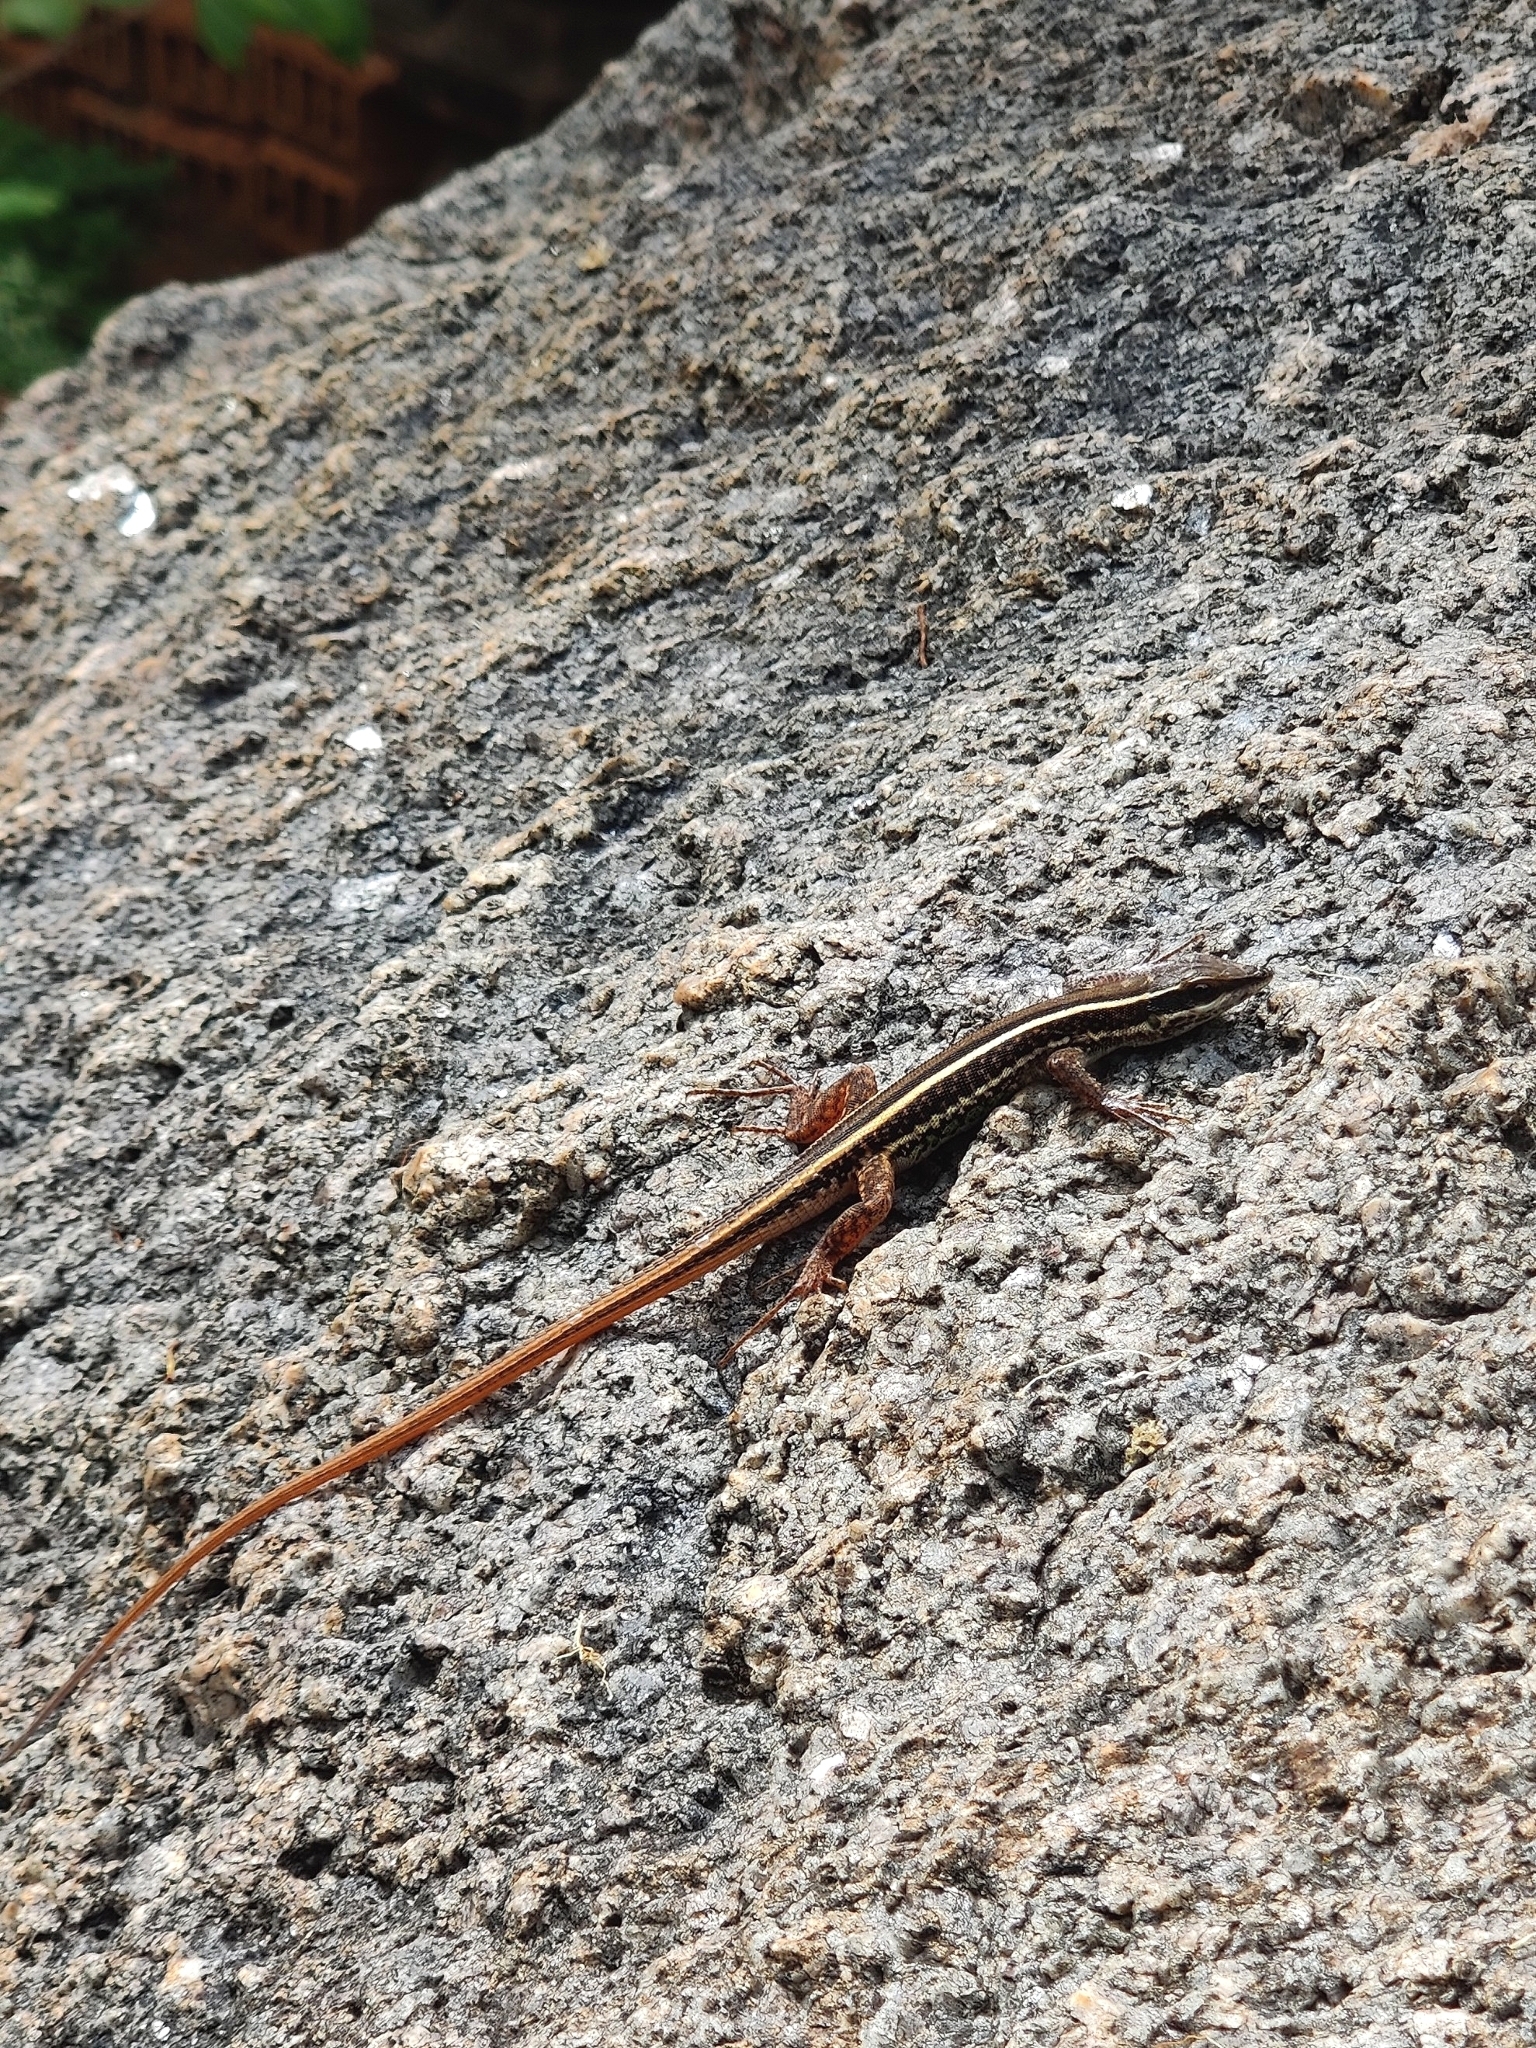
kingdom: Animalia
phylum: Chordata
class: Squamata
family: Lacertidae
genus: Ophisops
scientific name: Ophisops leschenaultii
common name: Leschenault's cabrita
